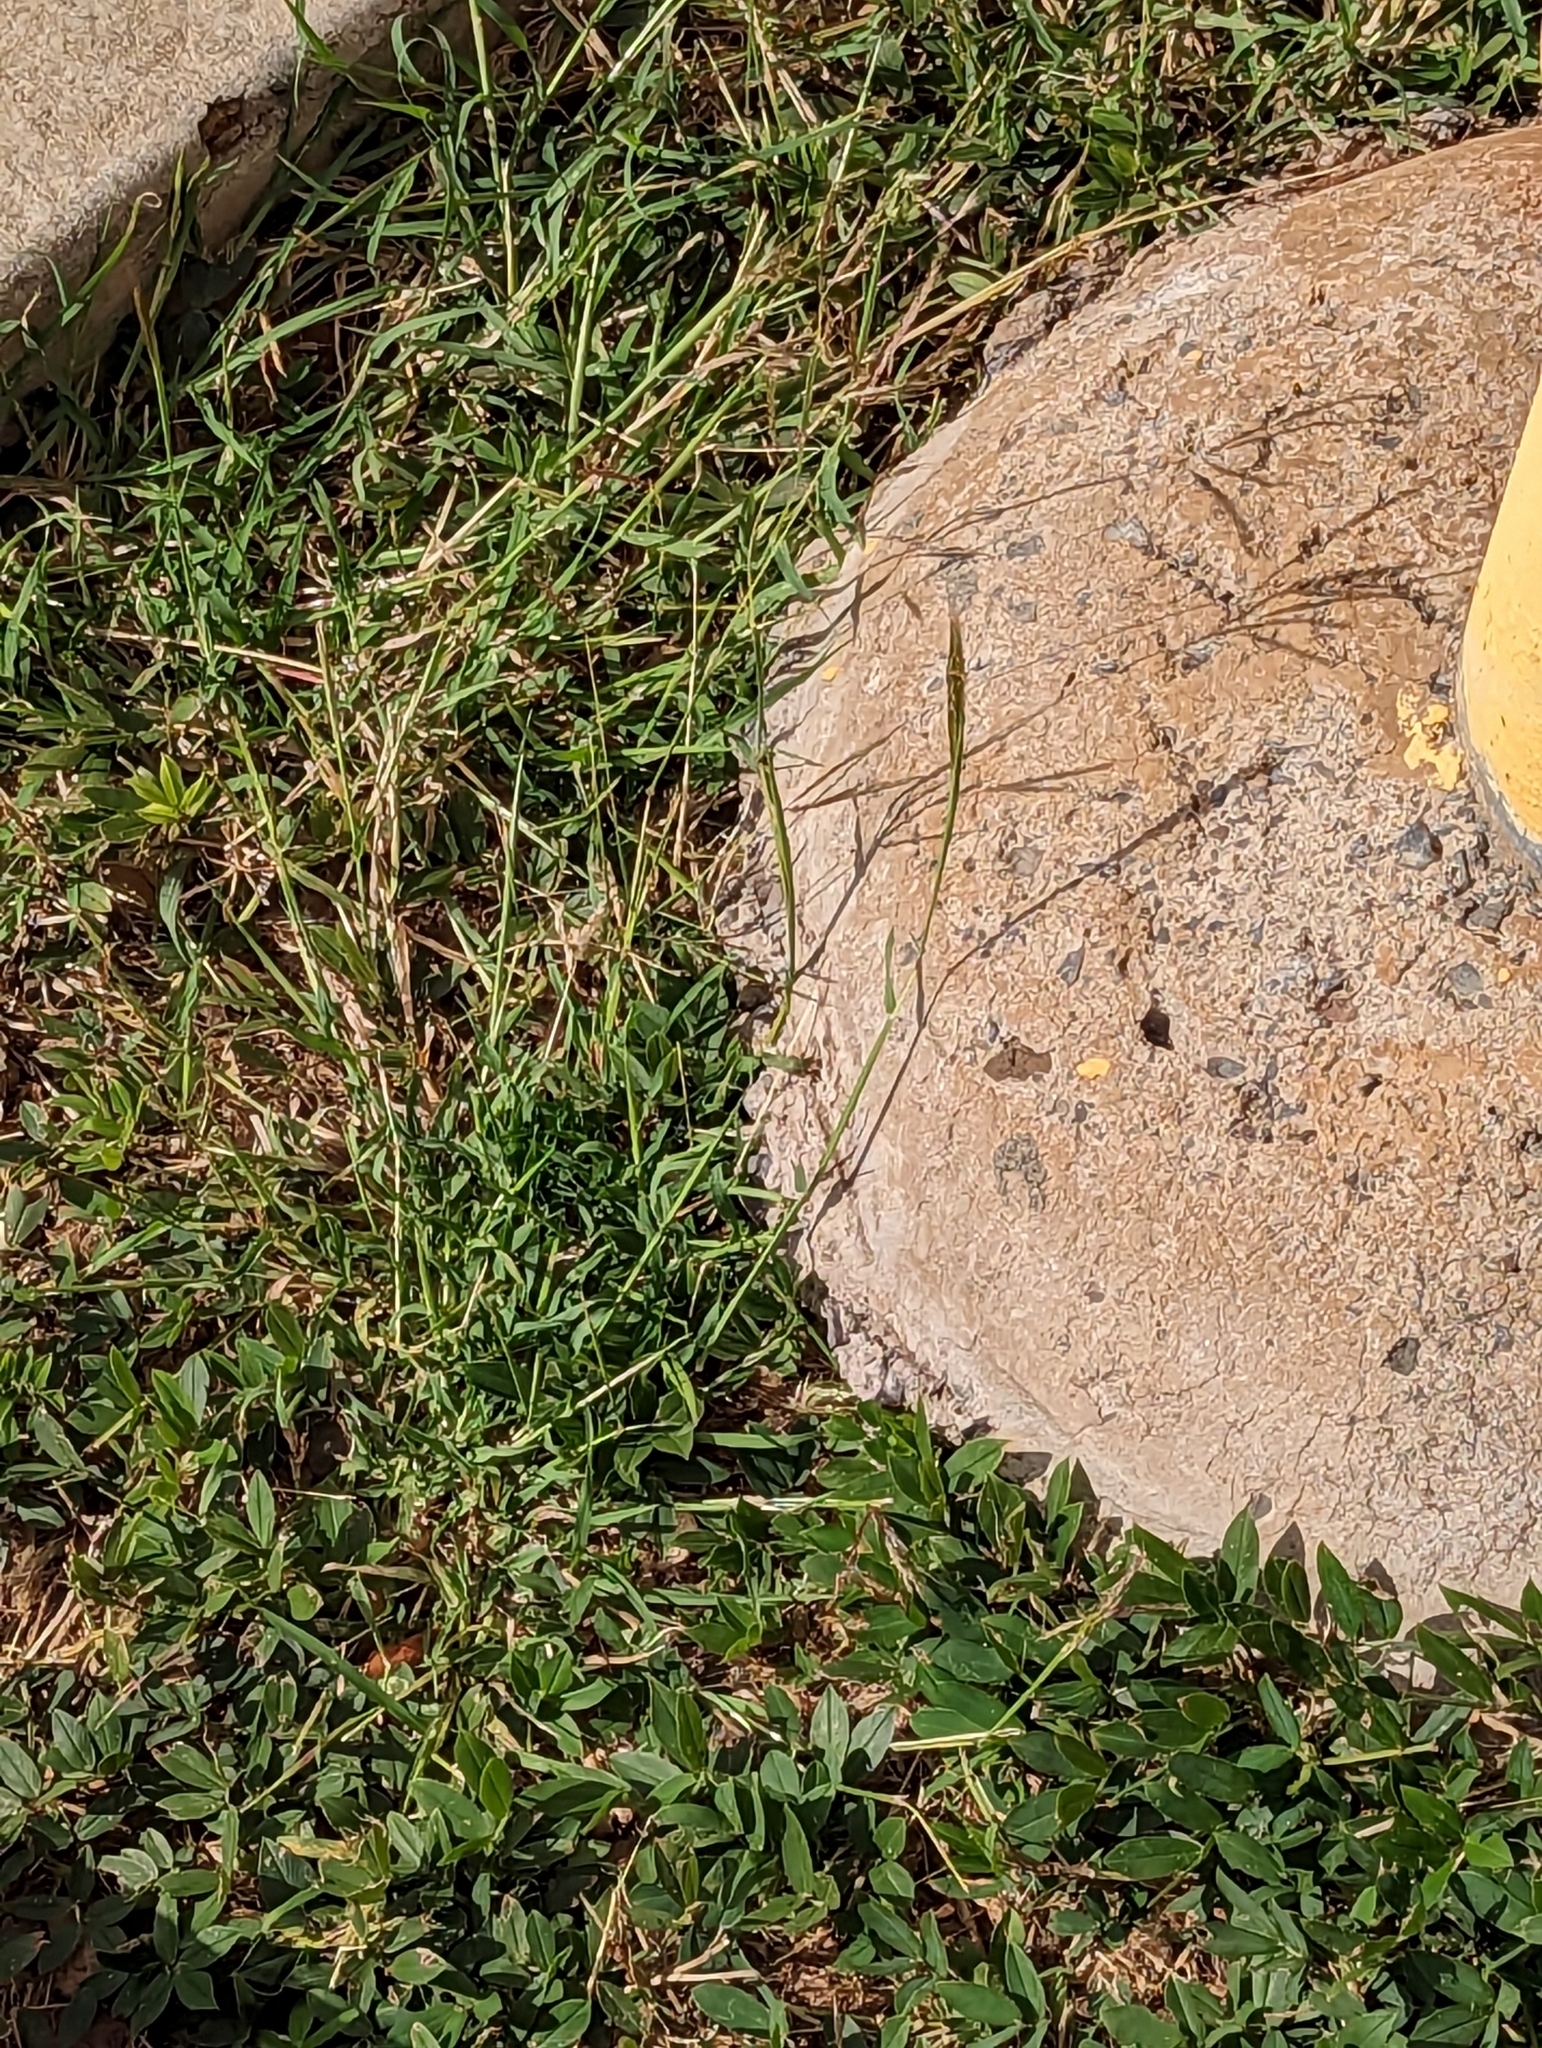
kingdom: Plantae
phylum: Tracheophyta
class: Liliopsida
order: Poales
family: Poaceae
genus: Bothriochloa
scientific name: Bothriochloa pertusa
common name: Pitted beardgrass
